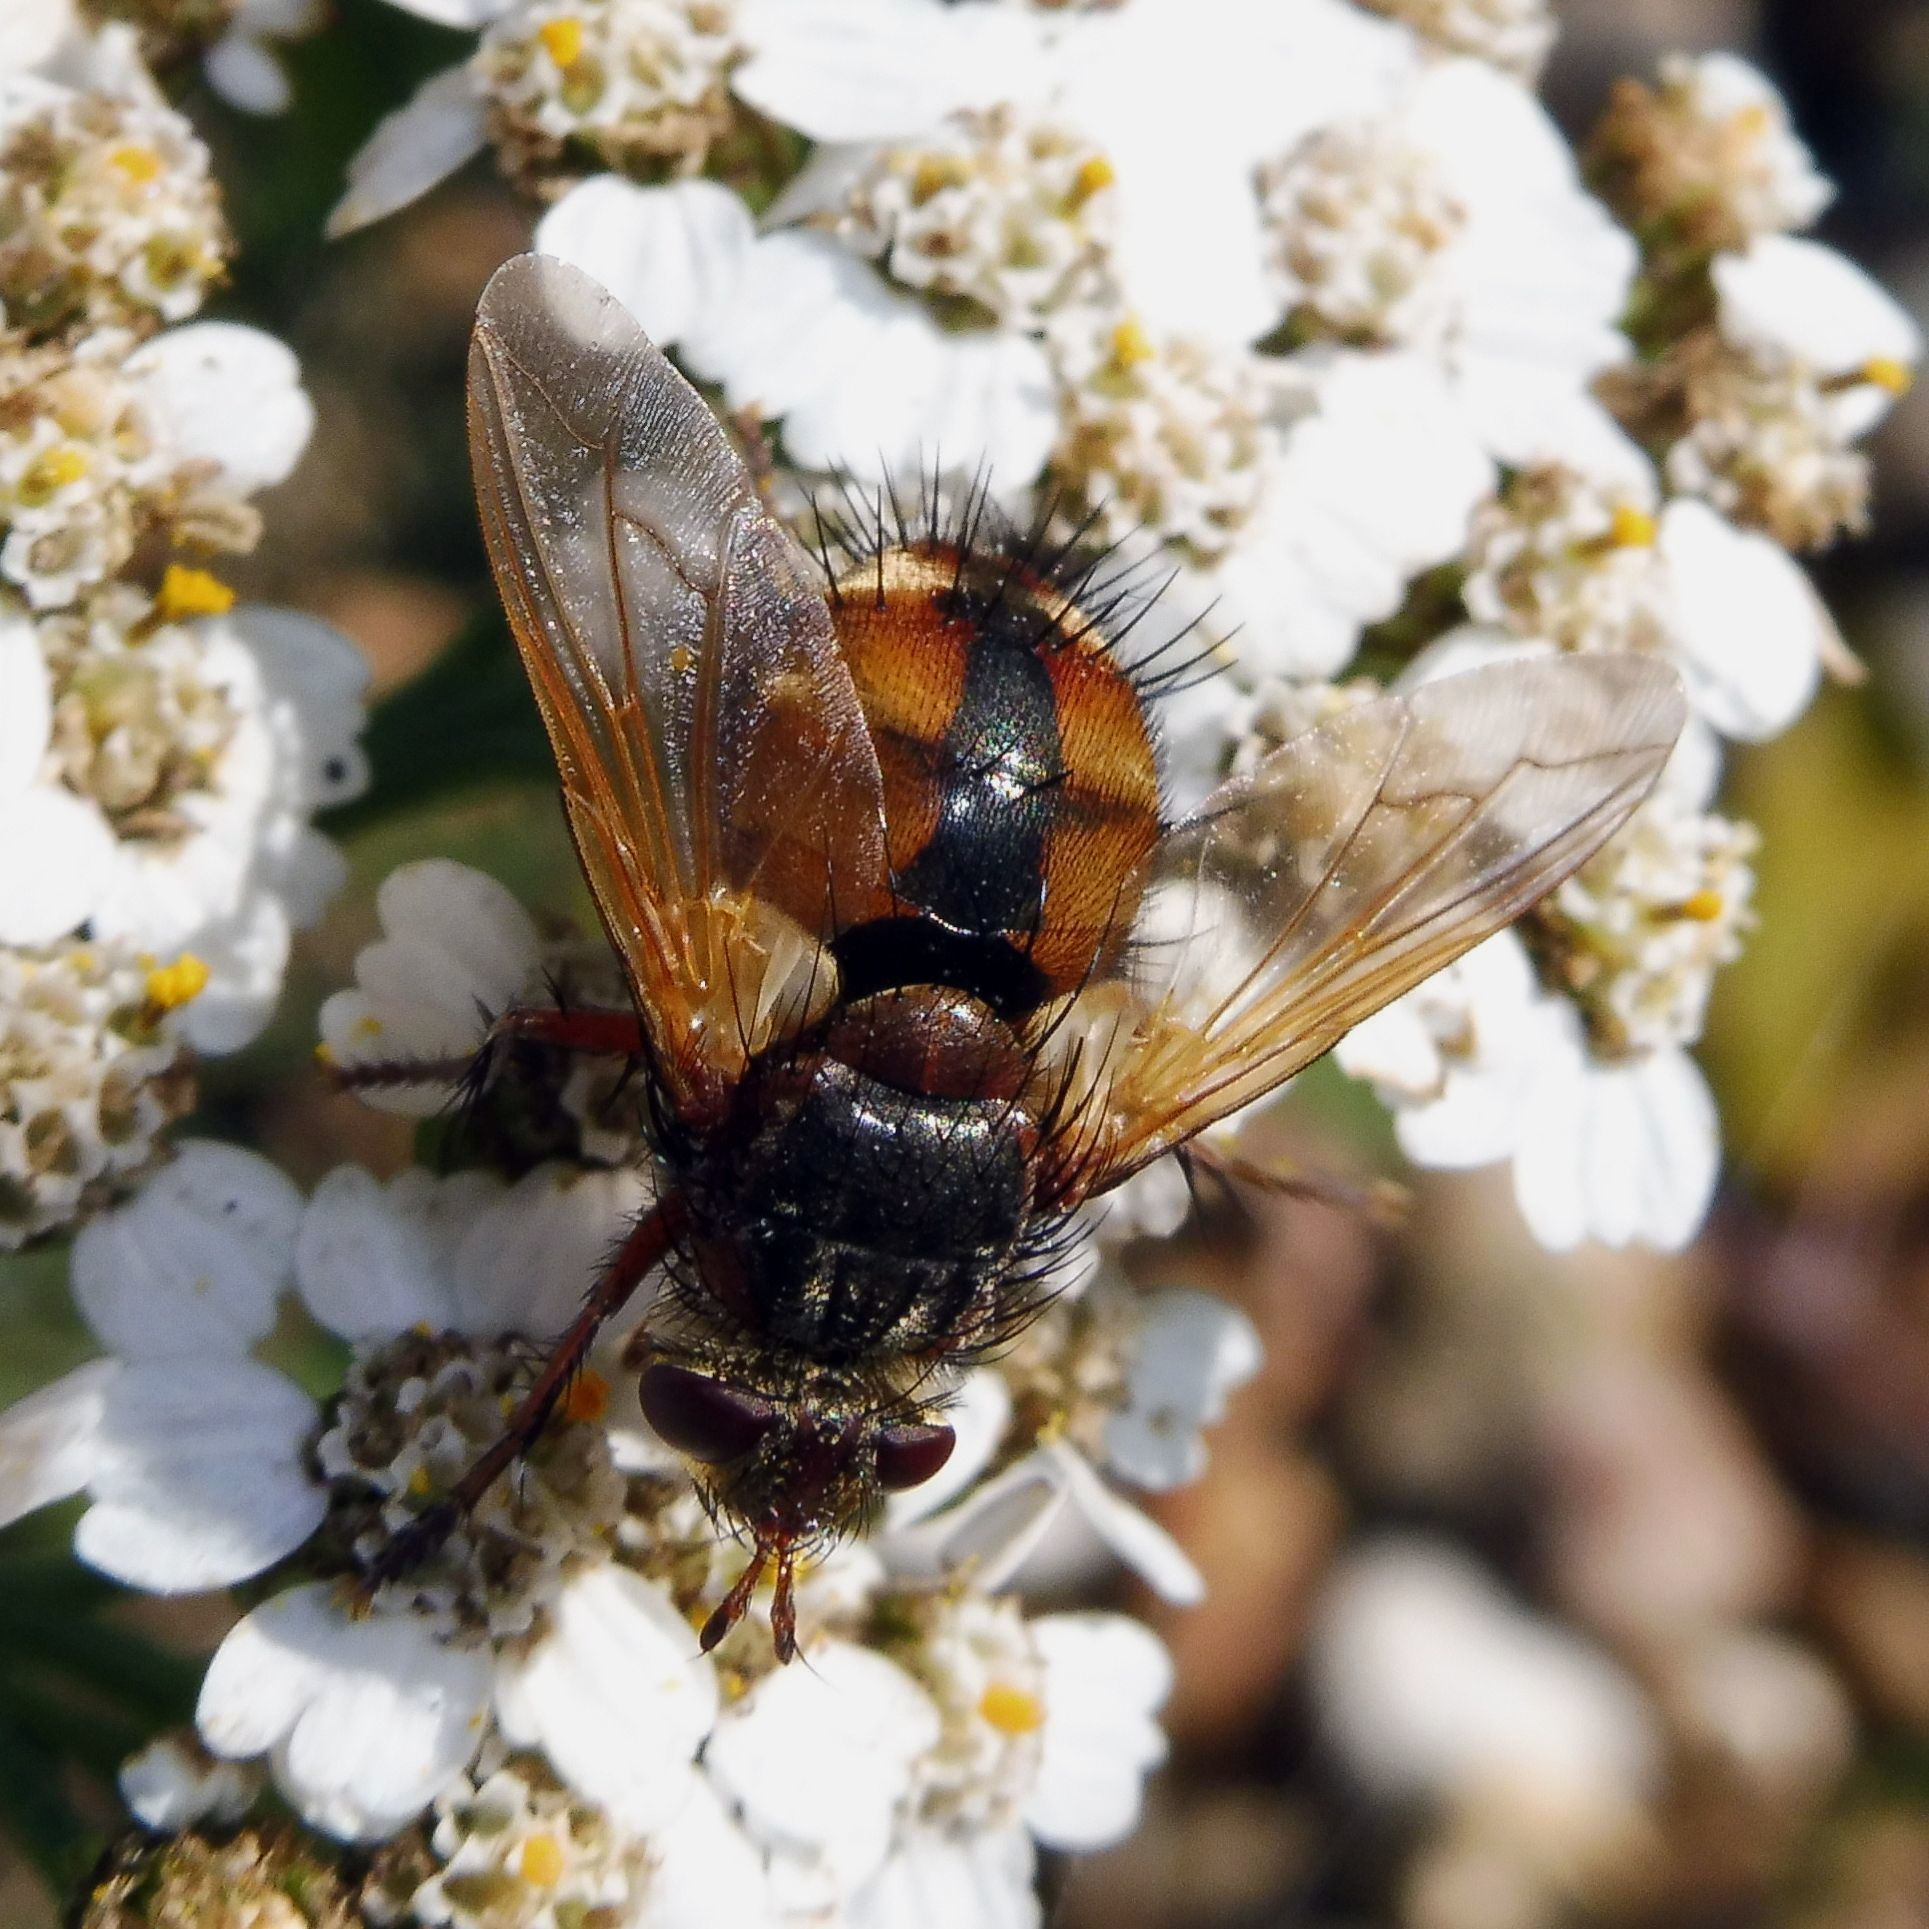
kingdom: Animalia
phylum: Arthropoda
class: Insecta
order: Diptera
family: Tachinidae
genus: Tachina
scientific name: Tachina fera
